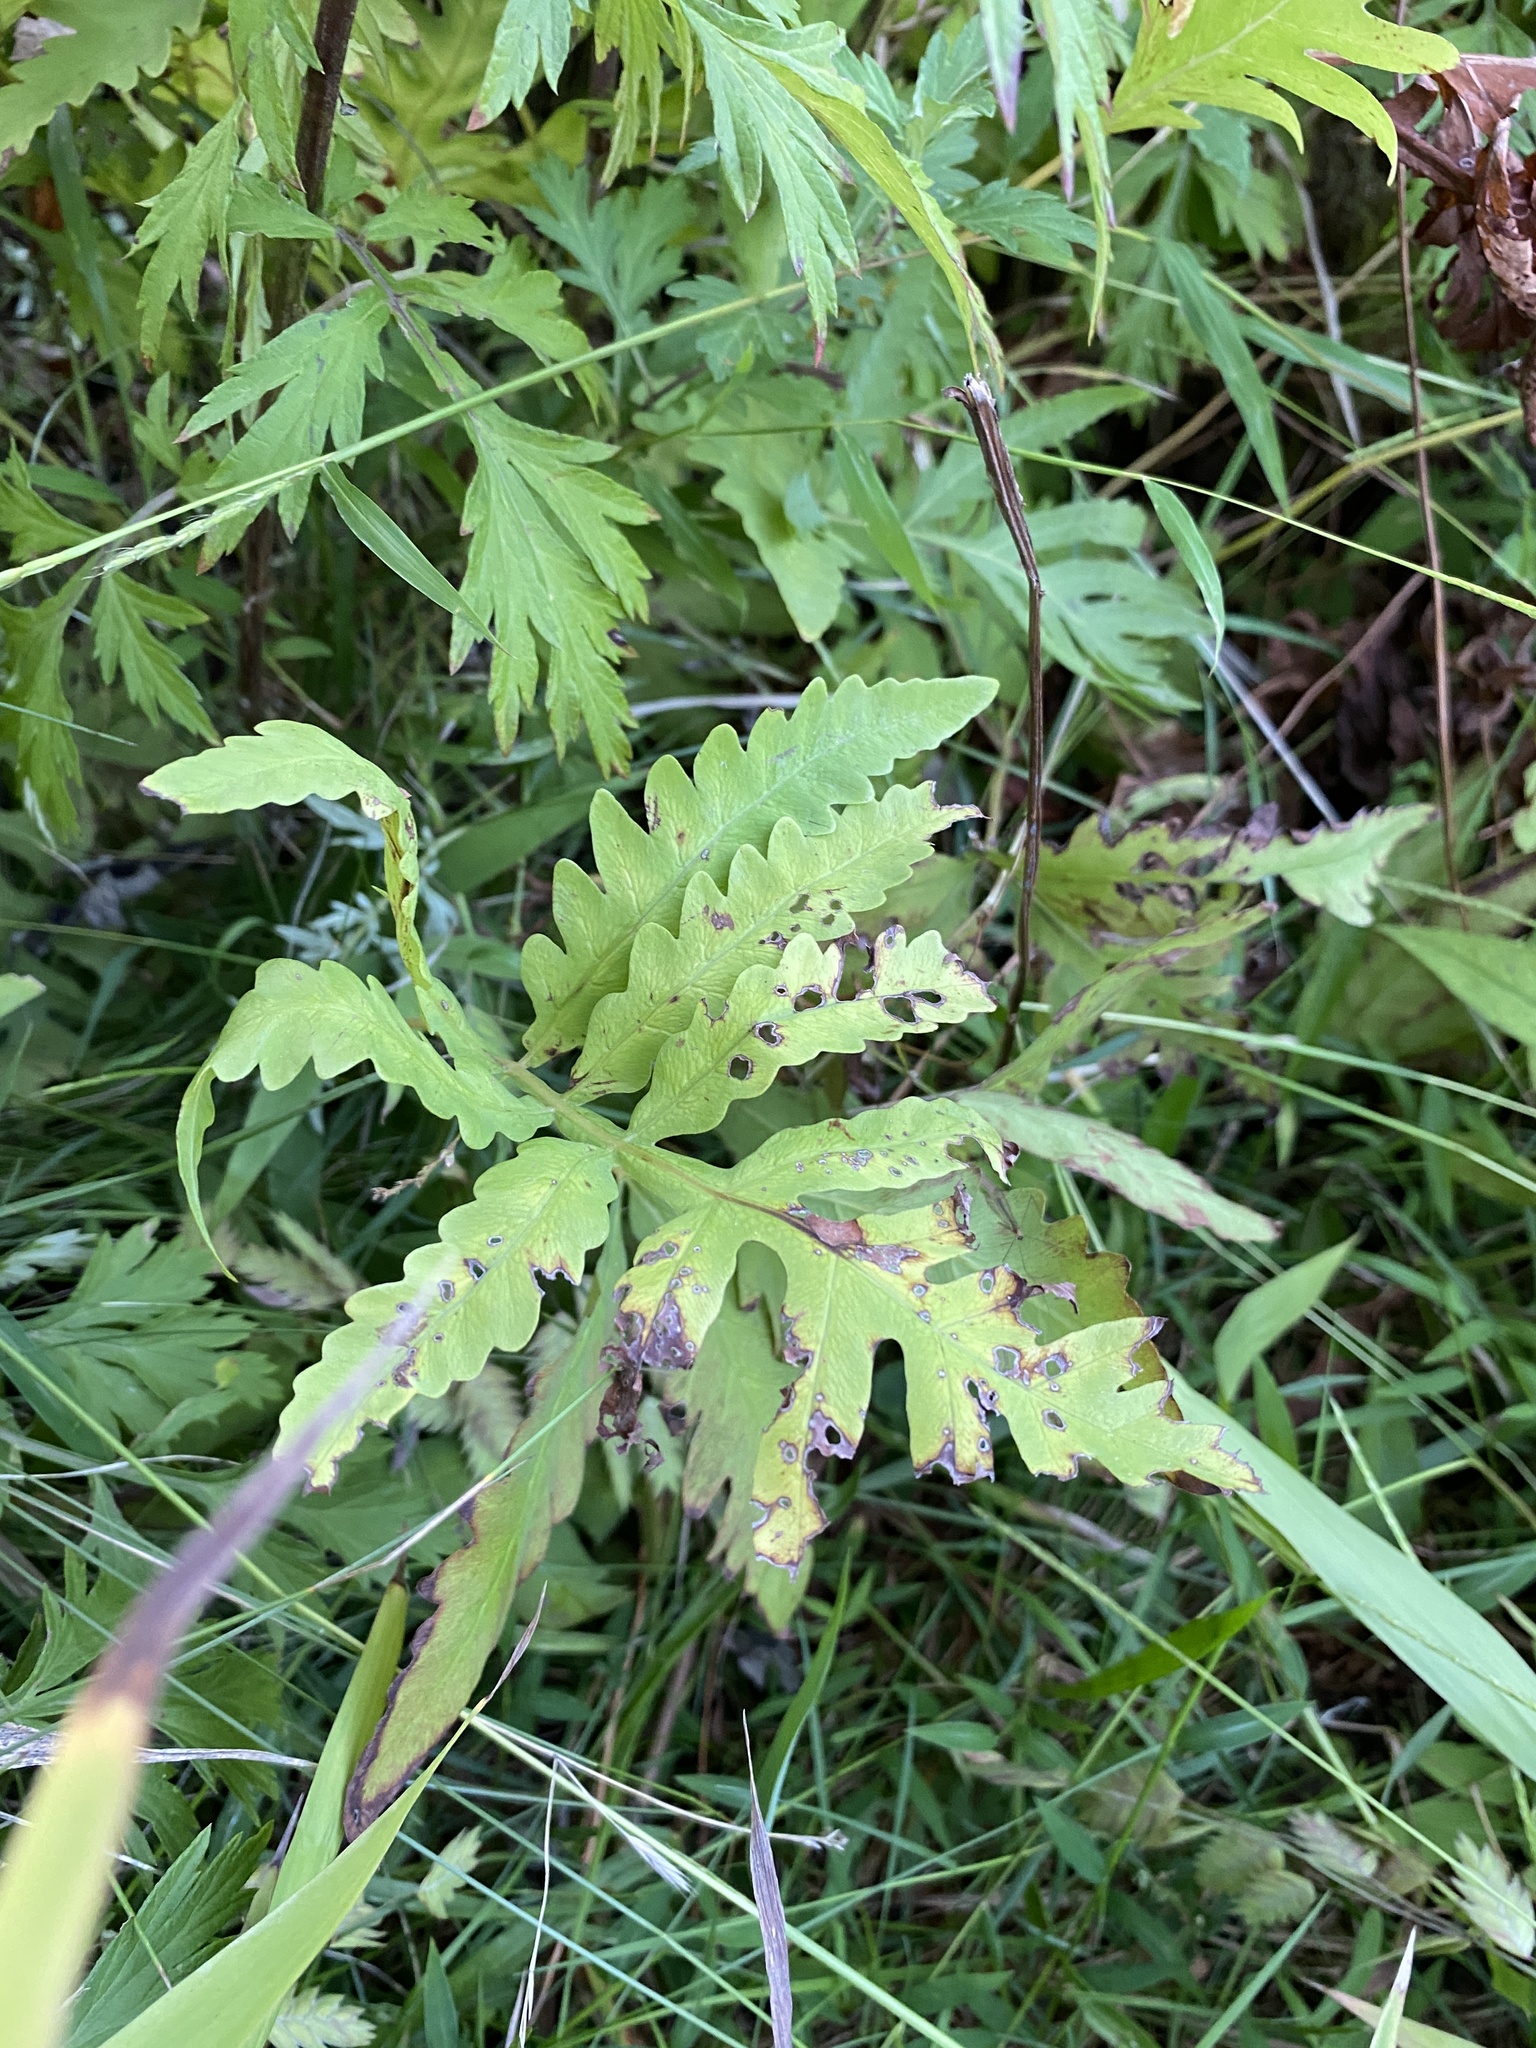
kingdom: Plantae
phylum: Tracheophyta
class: Polypodiopsida
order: Polypodiales
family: Onocleaceae
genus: Onoclea
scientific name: Onoclea sensibilis
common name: Sensitive fern
